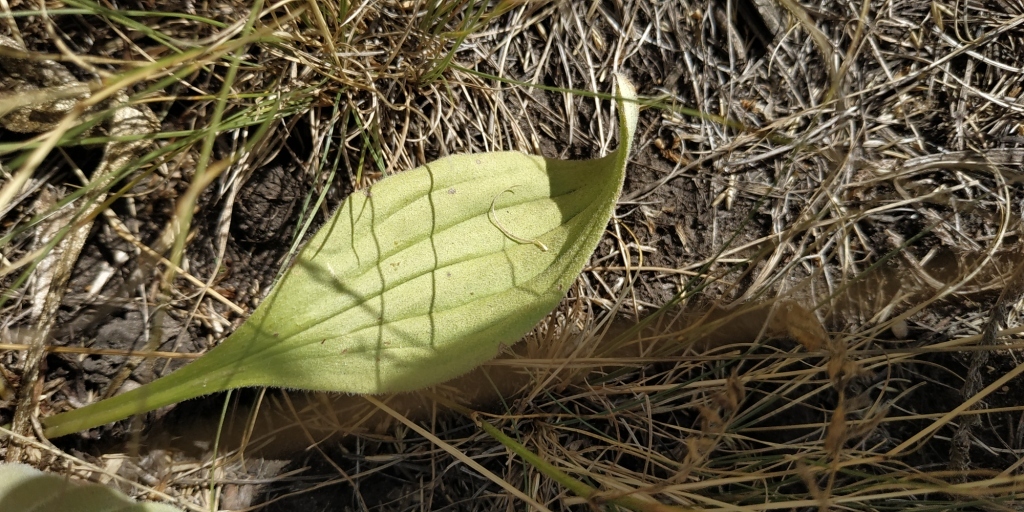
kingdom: Plantae
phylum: Tracheophyta
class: Magnoliopsida
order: Lamiales
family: Plantaginaceae
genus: Plantago
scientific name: Plantago media
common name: Hoary plantain
